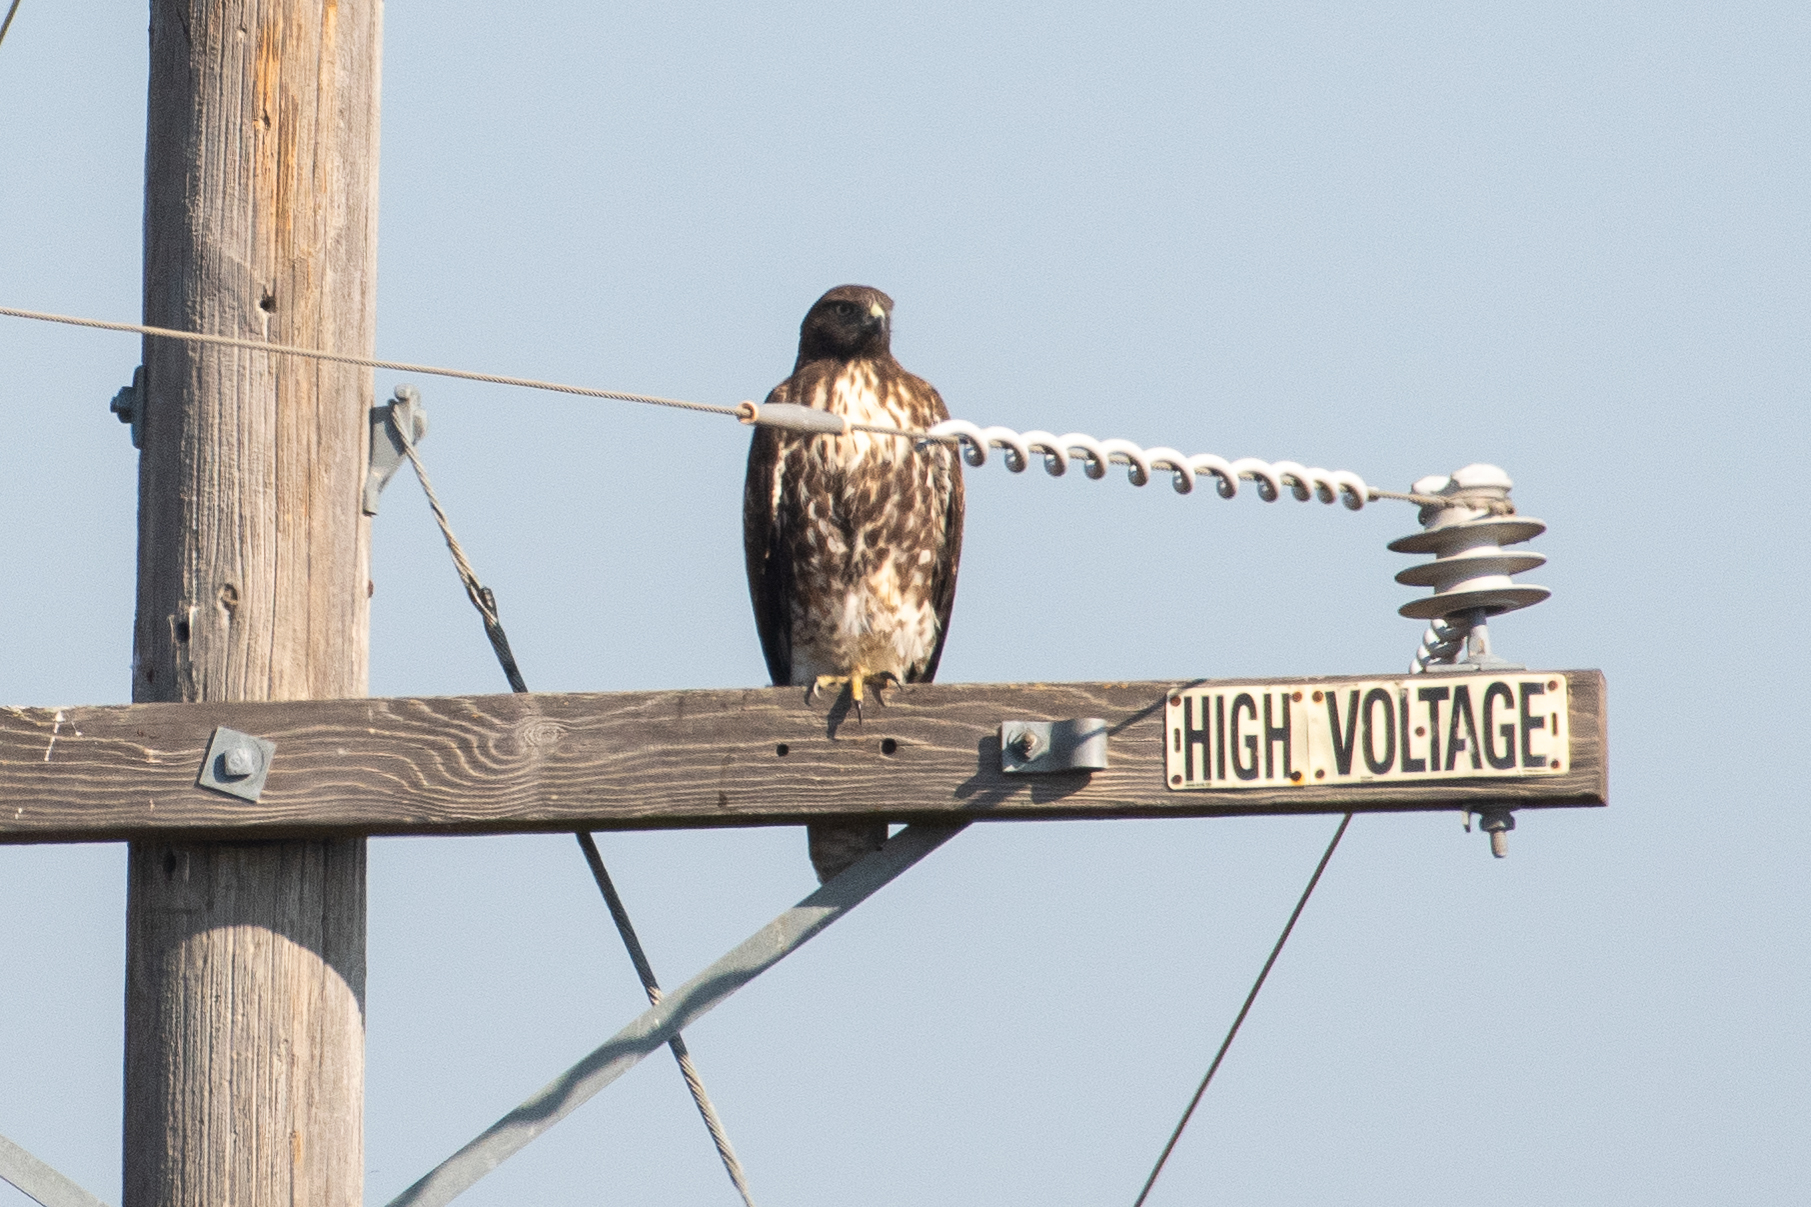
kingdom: Animalia
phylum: Chordata
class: Aves
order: Accipitriformes
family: Accipitridae
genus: Buteo
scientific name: Buteo jamaicensis
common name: Red-tailed hawk
